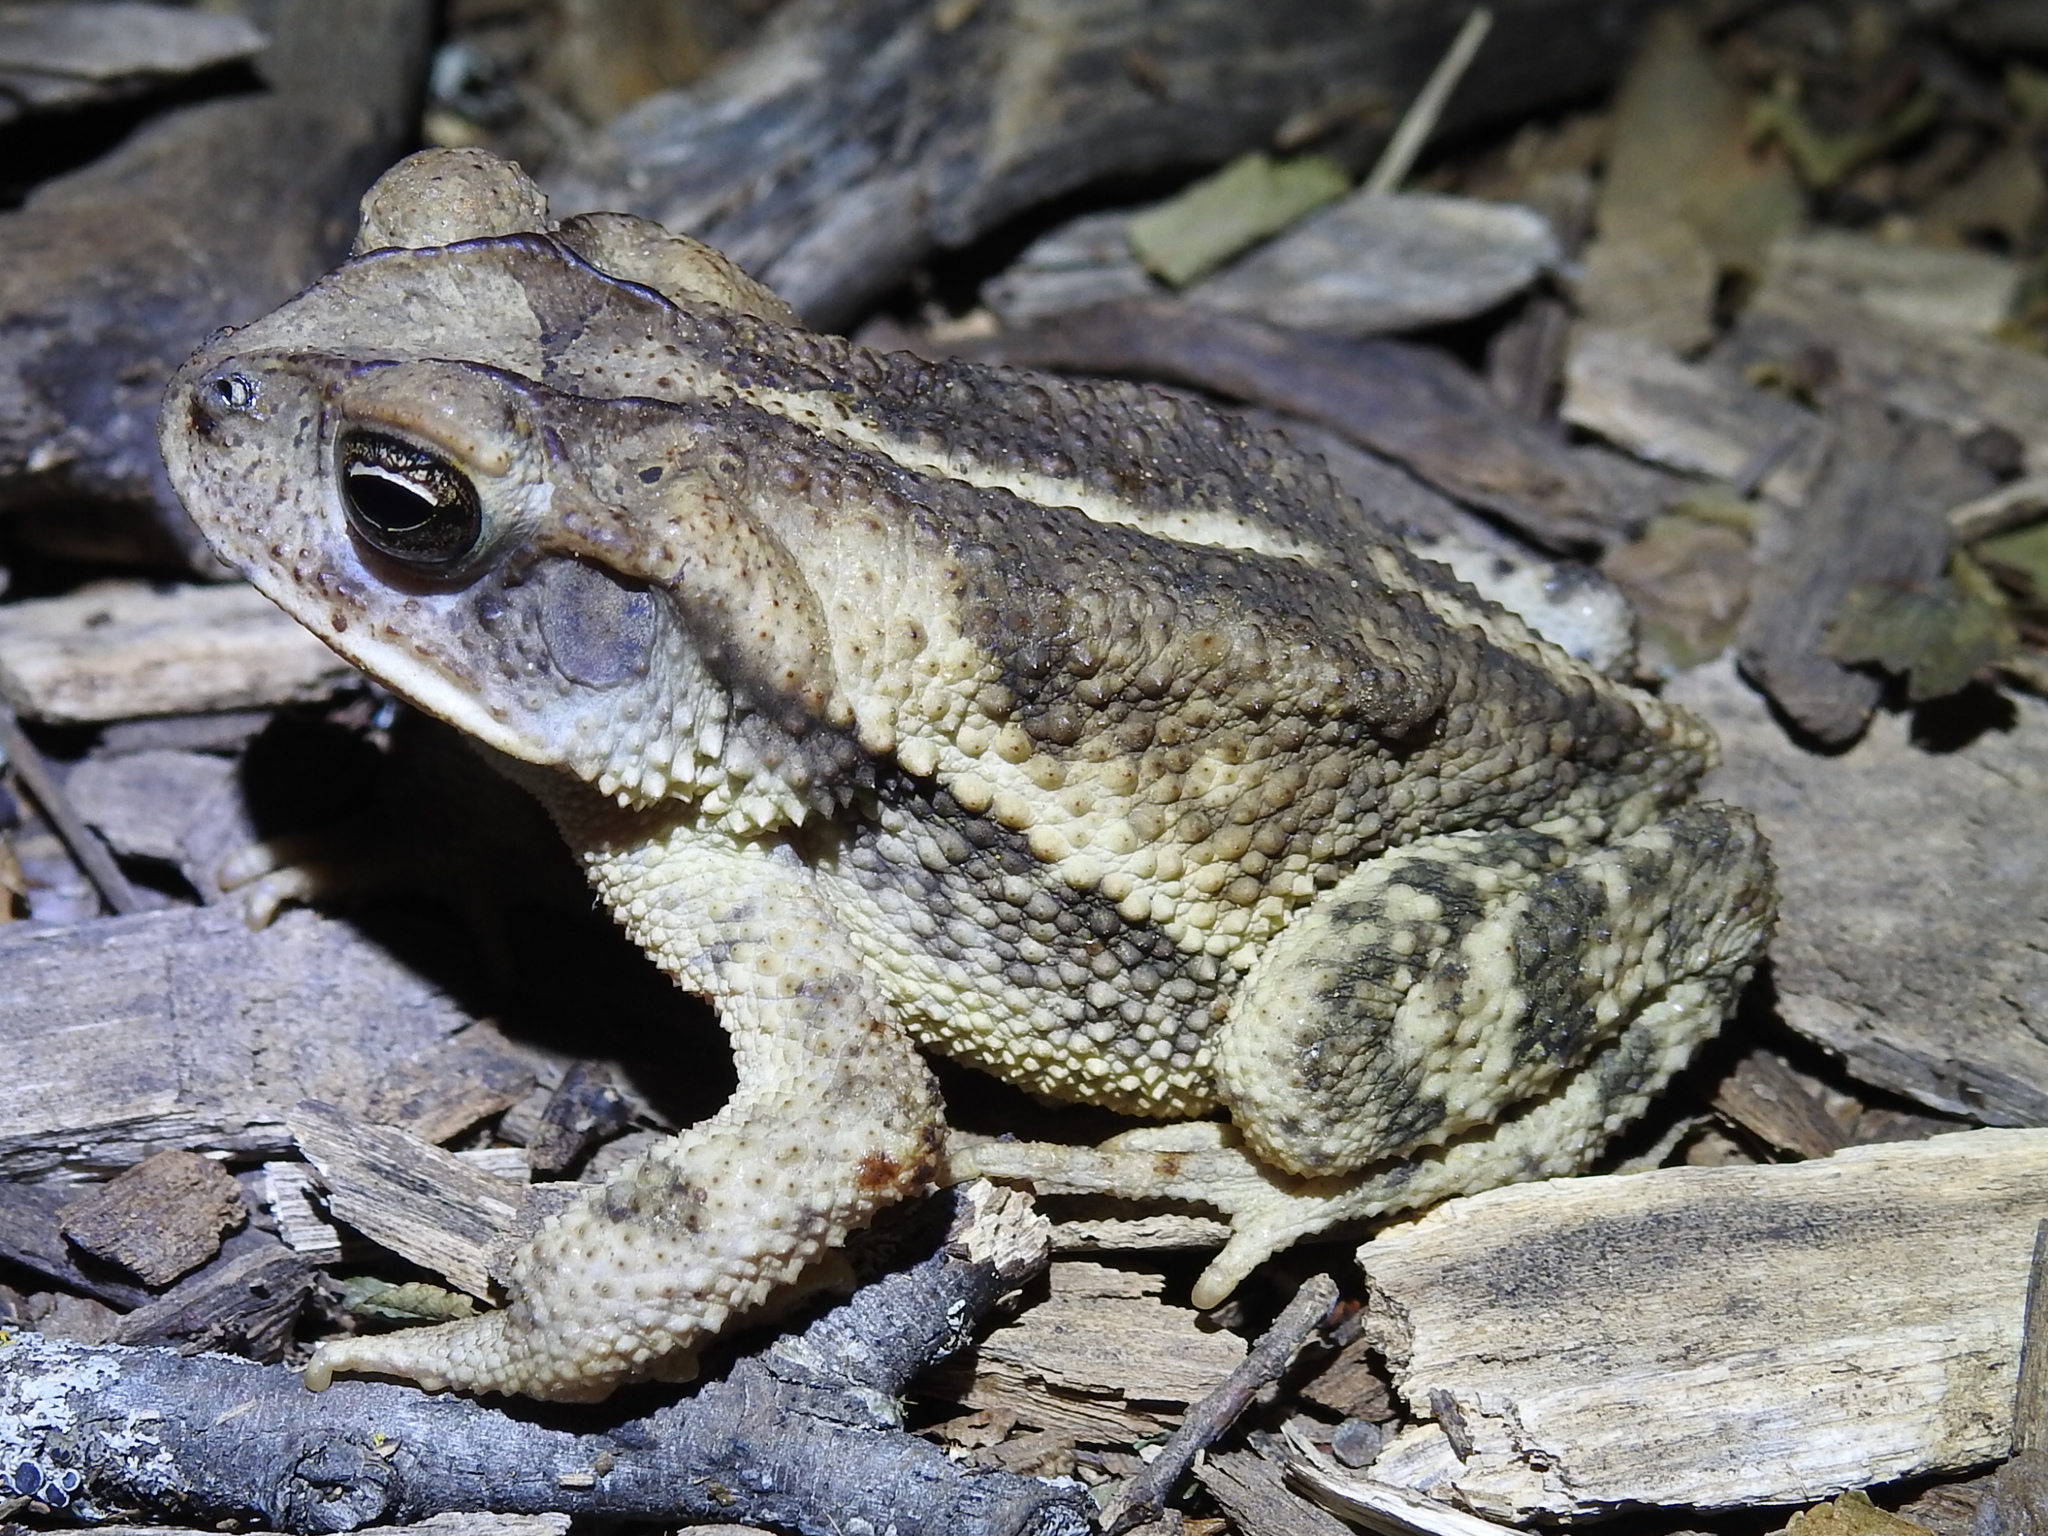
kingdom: Animalia
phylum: Chordata
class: Amphibia
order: Anura
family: Bufonidae
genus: Incilius
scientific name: Incilius nebulifer
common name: Gulf coast toad
